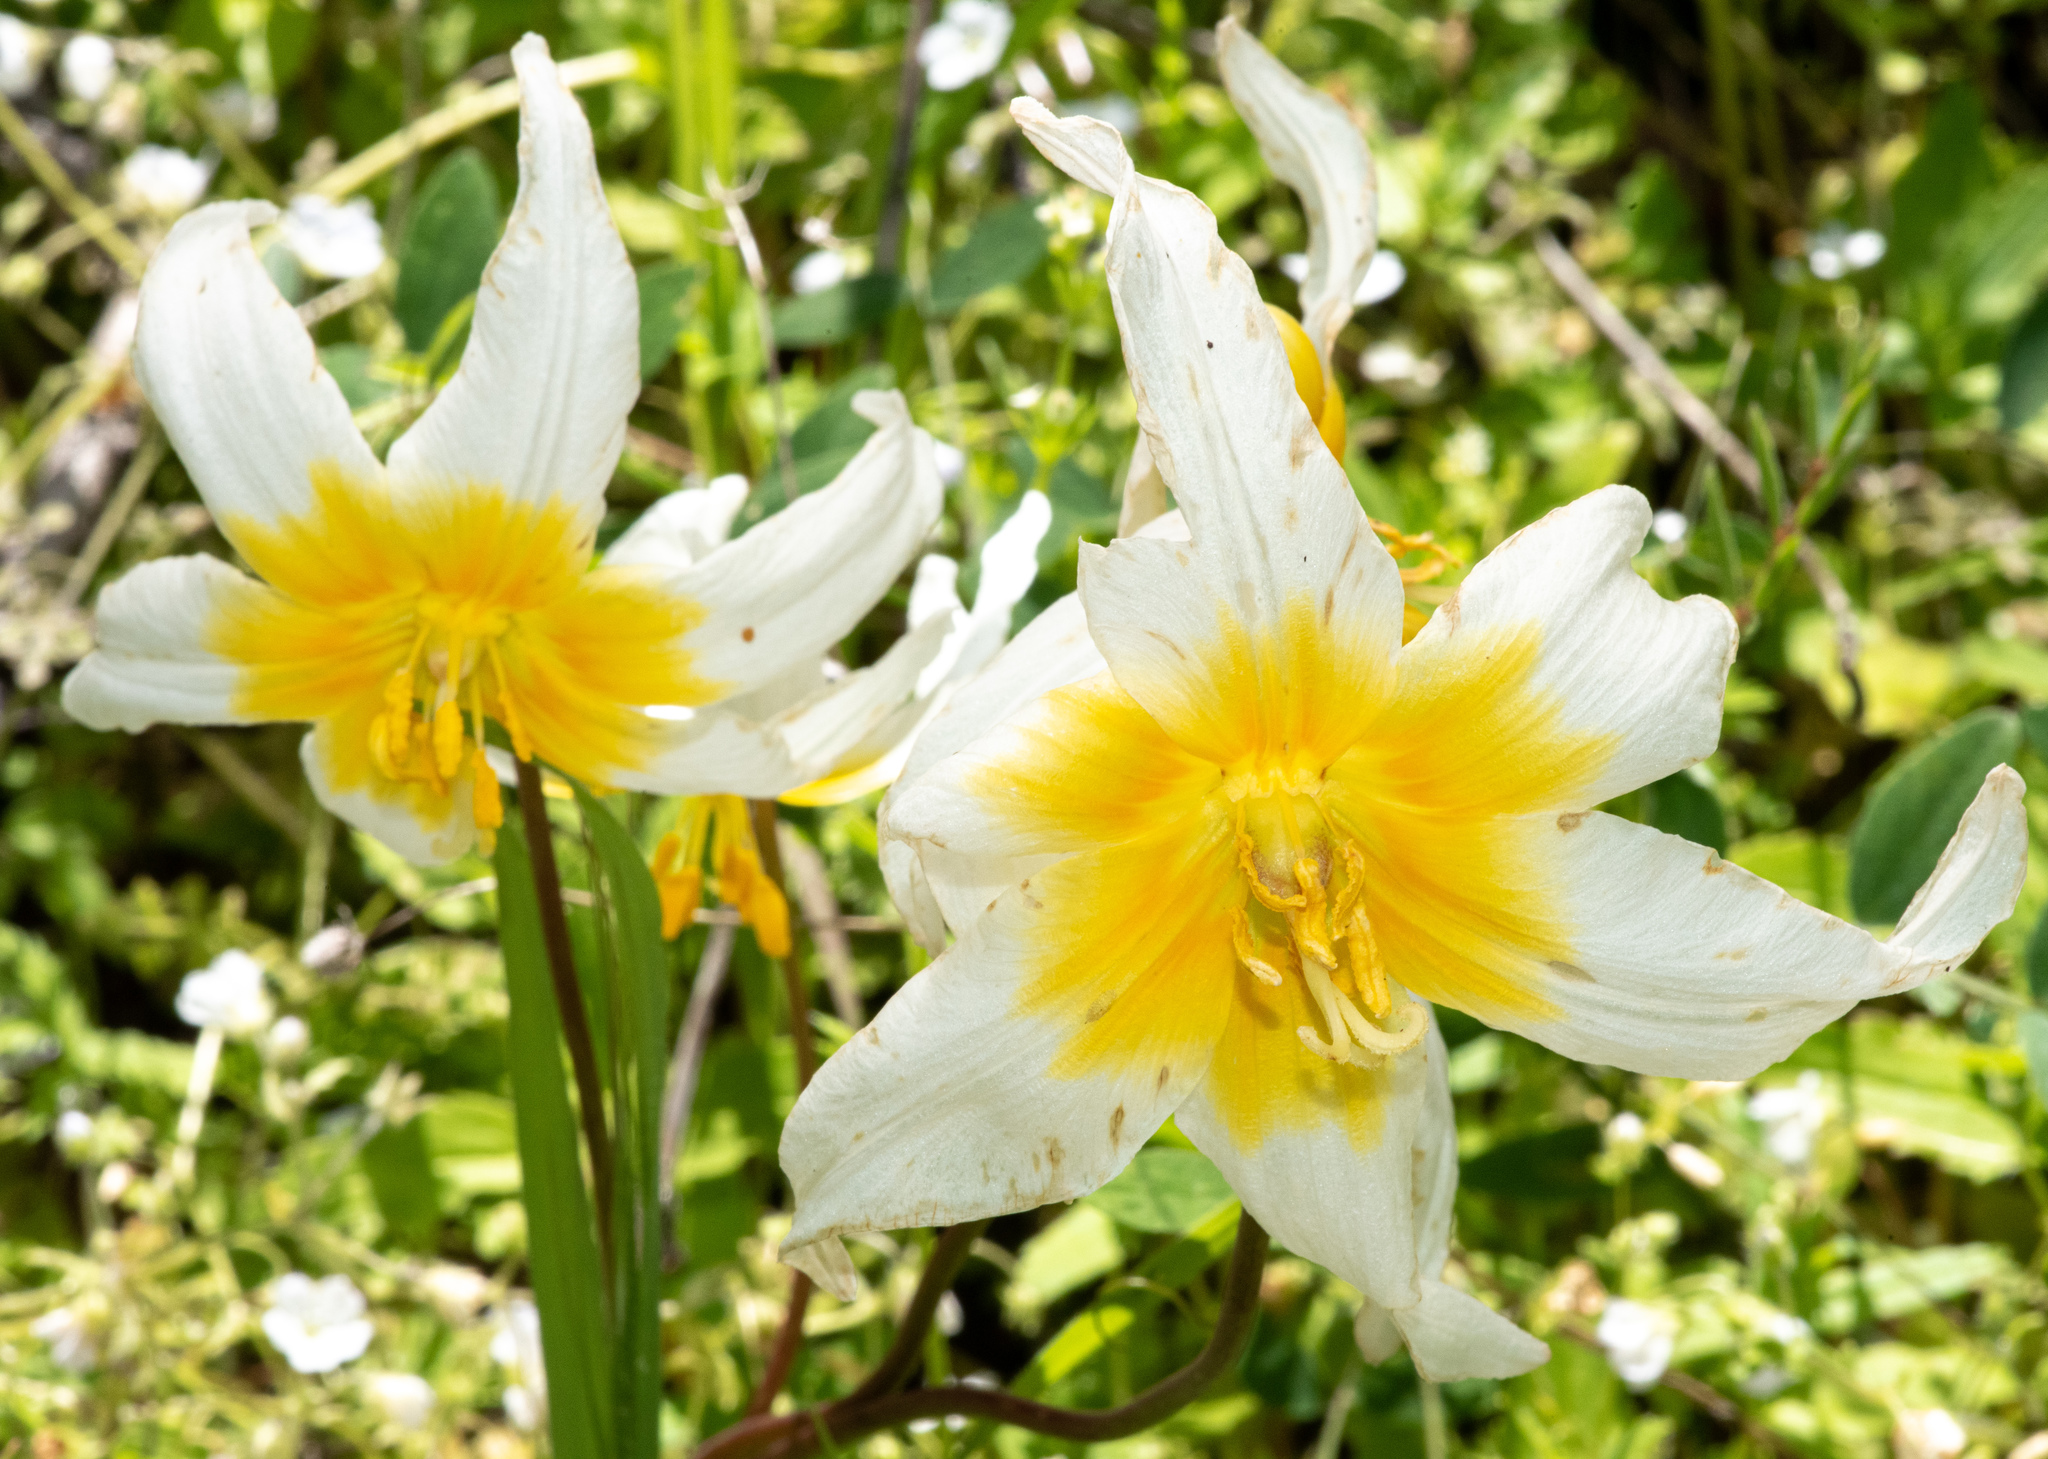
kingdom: Plantae
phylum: Tracheophyta
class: Liliopsida
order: Liliales
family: Liliaceae
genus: Erythronium
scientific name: Erythronium helenae
